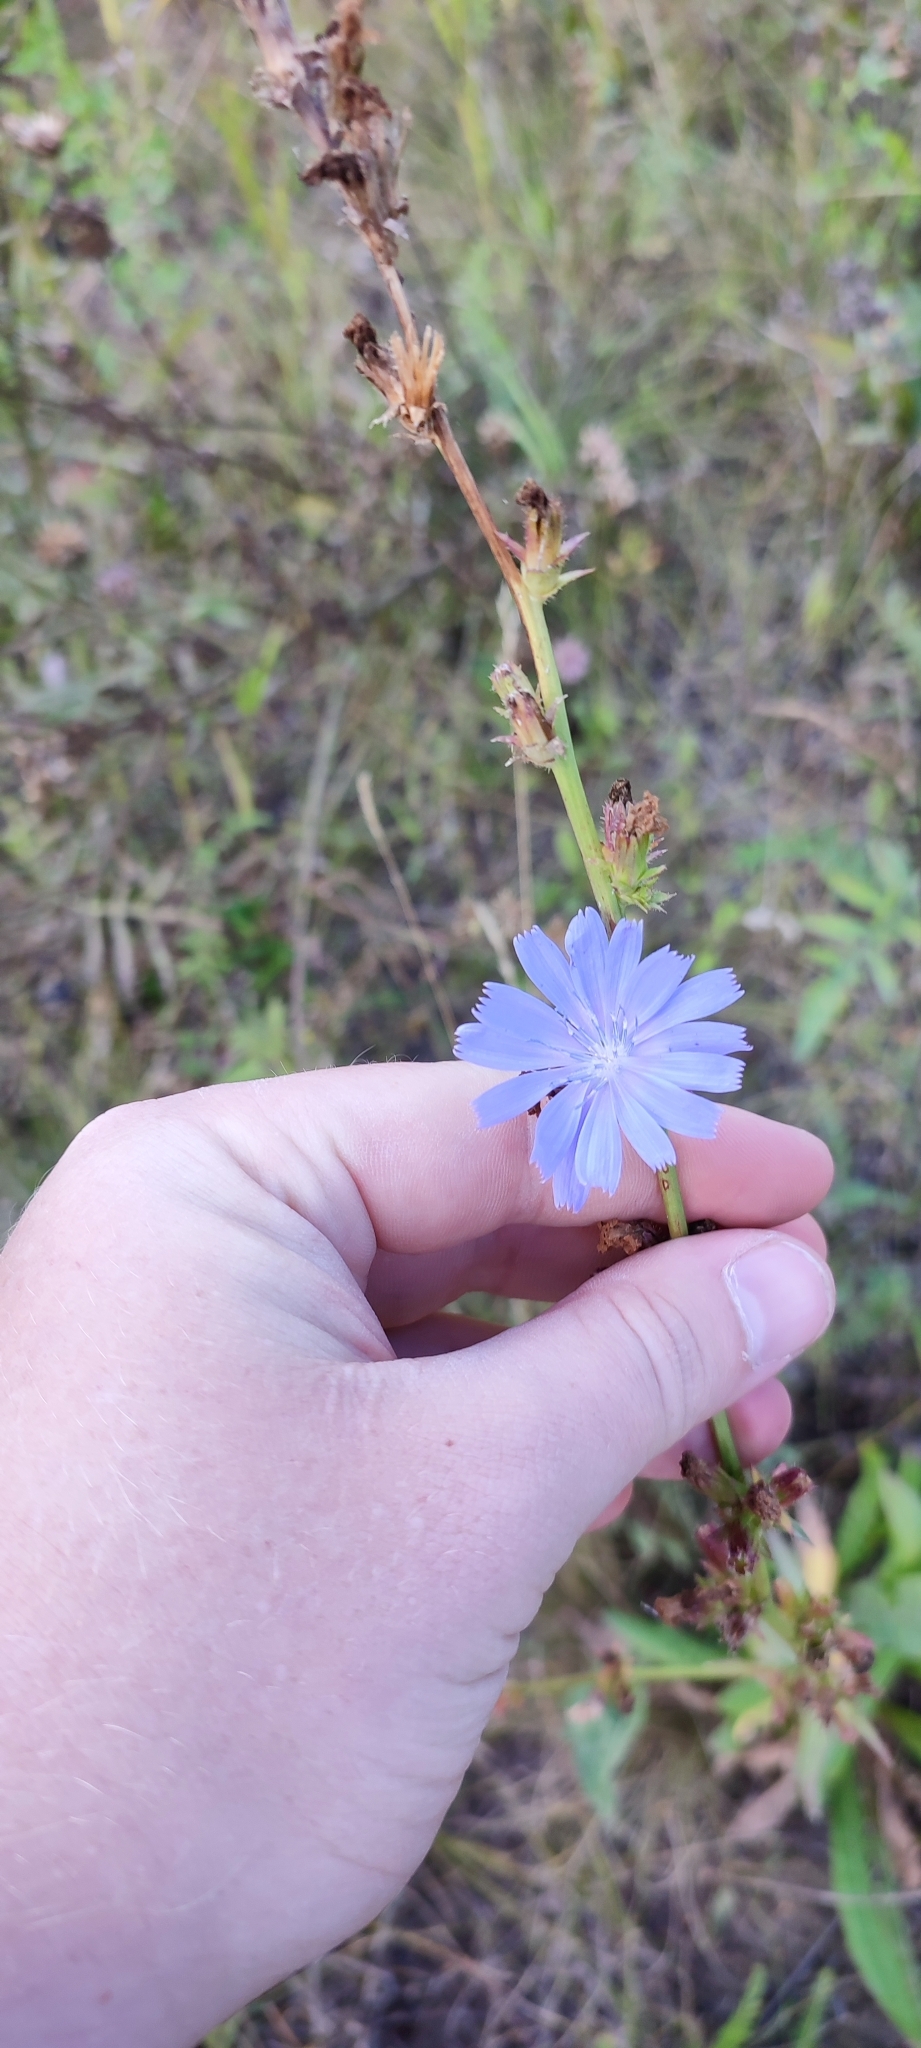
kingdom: Plantae
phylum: Tracheophyta
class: Magnoliopsida
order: Asterales
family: Asteraceae
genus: Cichorium
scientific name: Cichorium intybus
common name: Chicory
